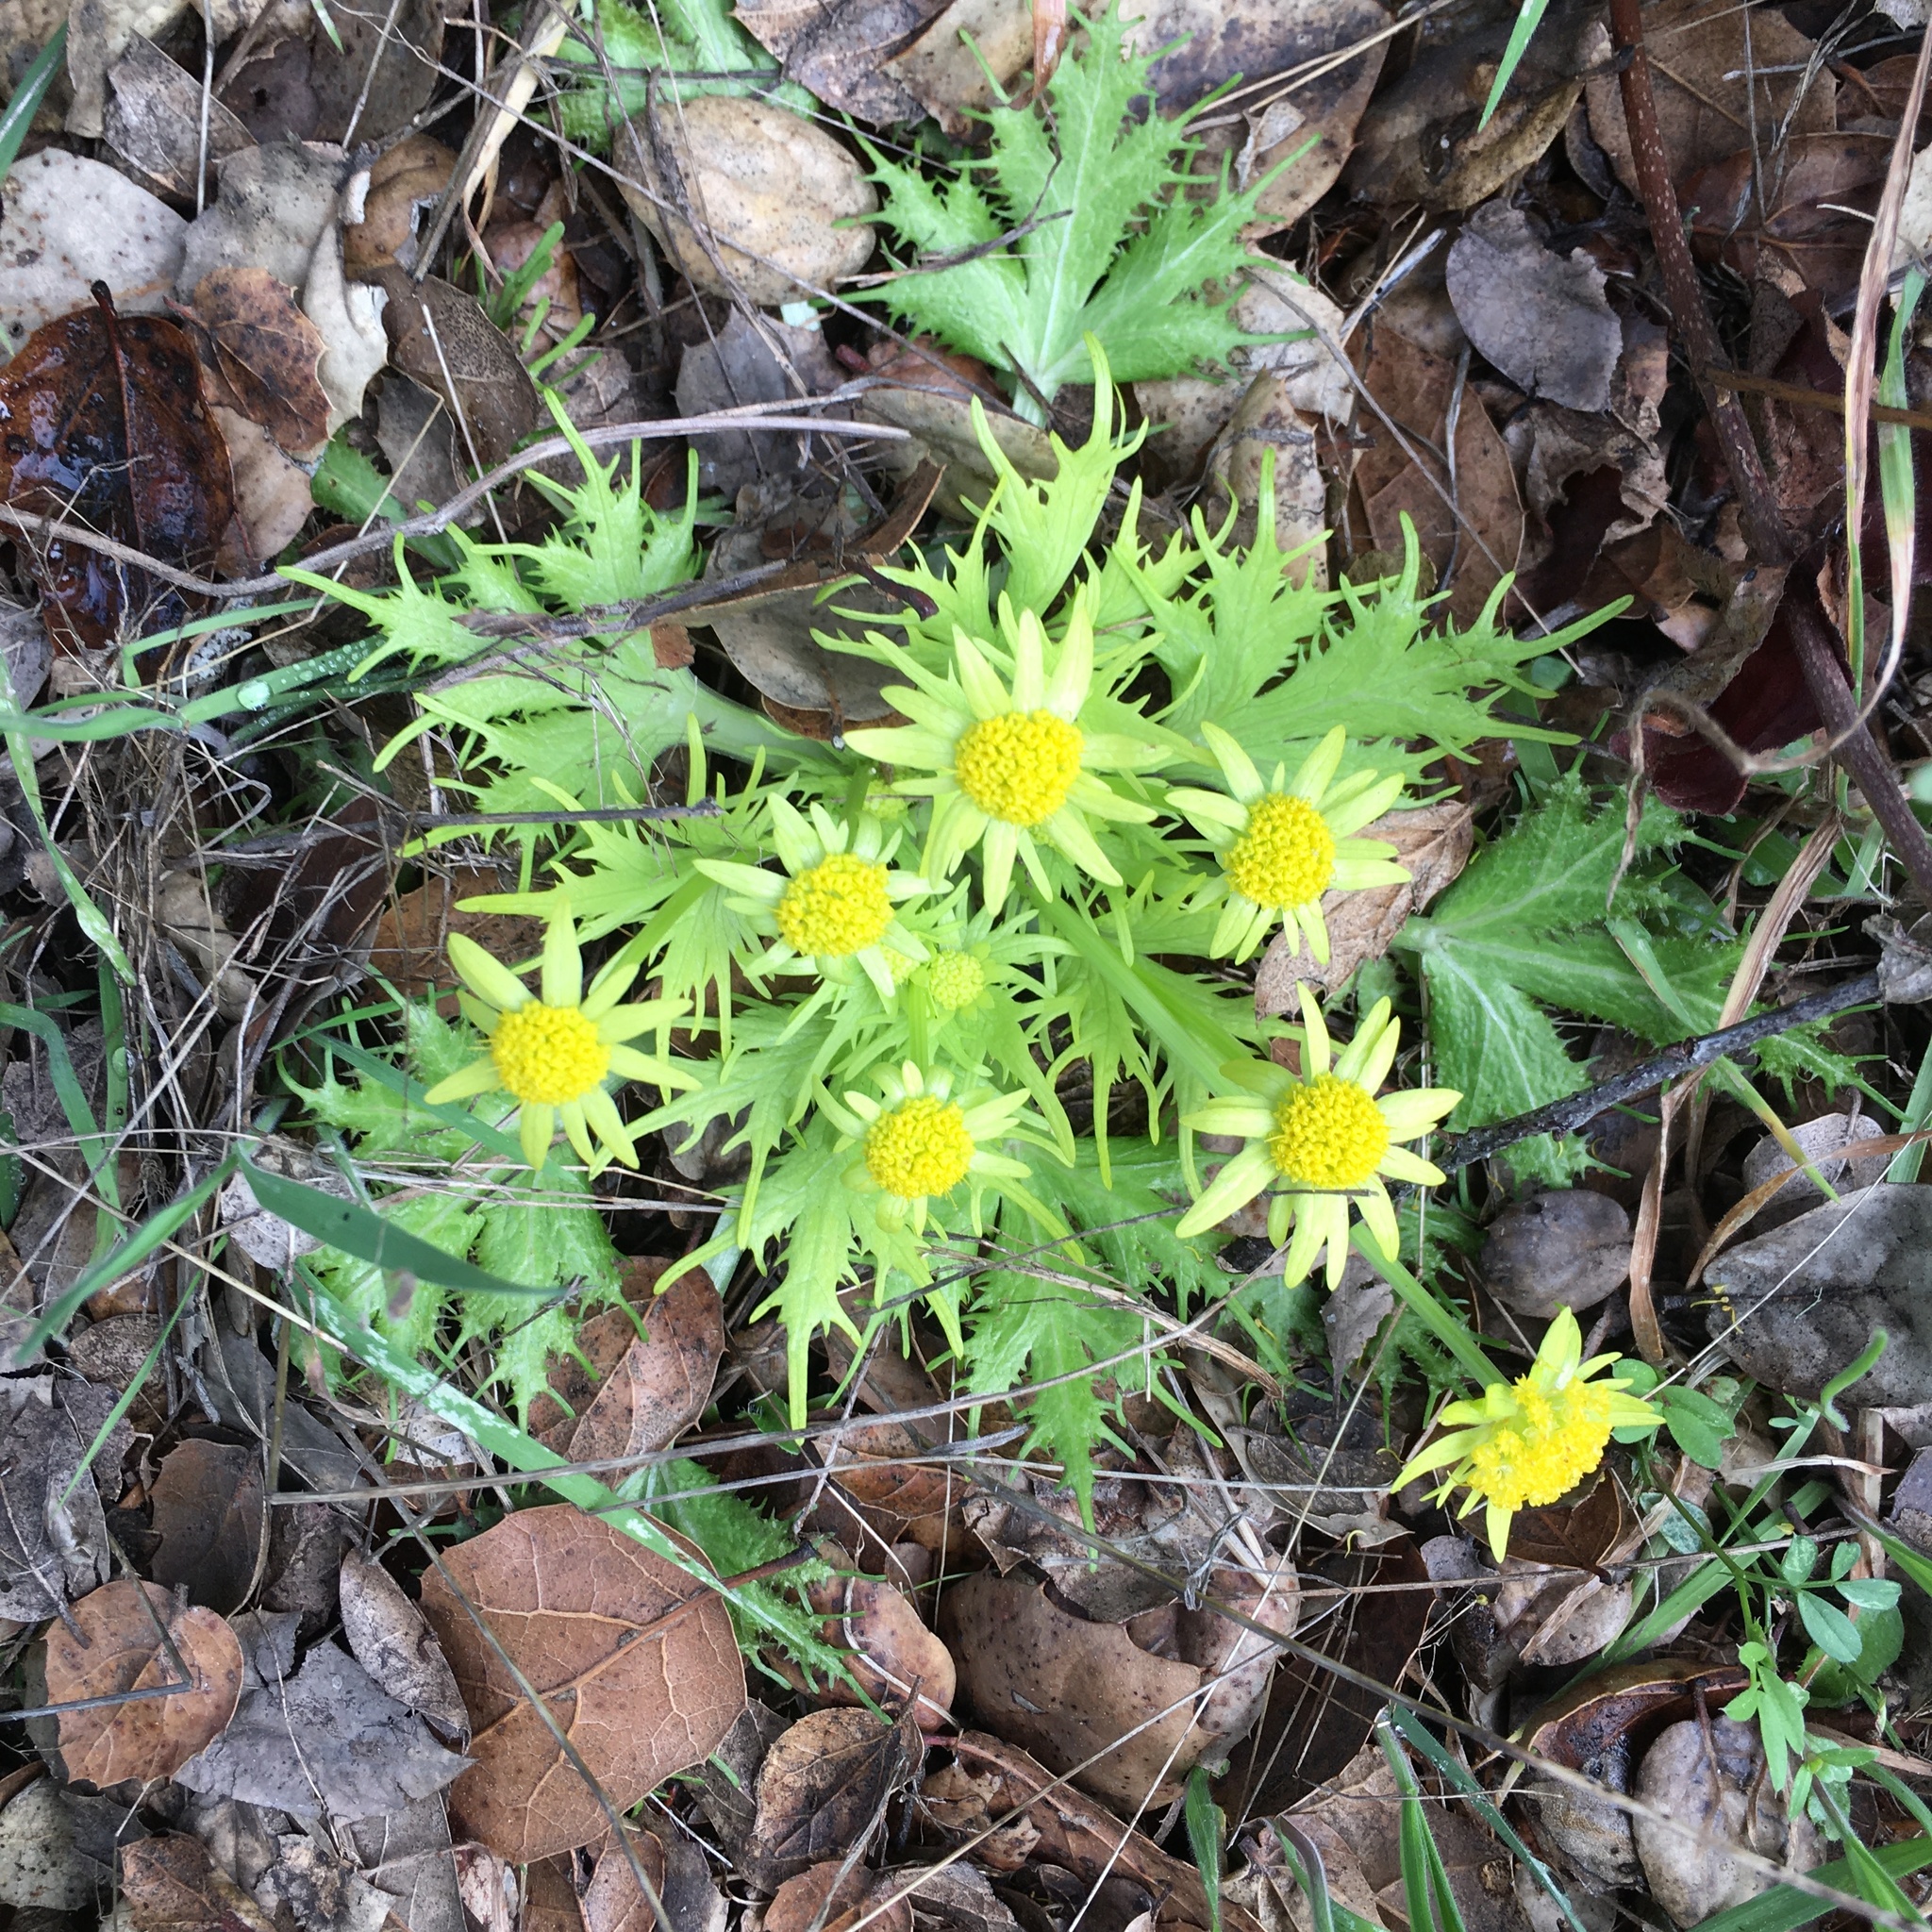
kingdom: Plantae
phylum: Tracheophyta
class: Magnoliopsida
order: Apiales
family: Apiaceae
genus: Sanicula
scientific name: Sanicula arctopoides
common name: Footsteps-of-spring
